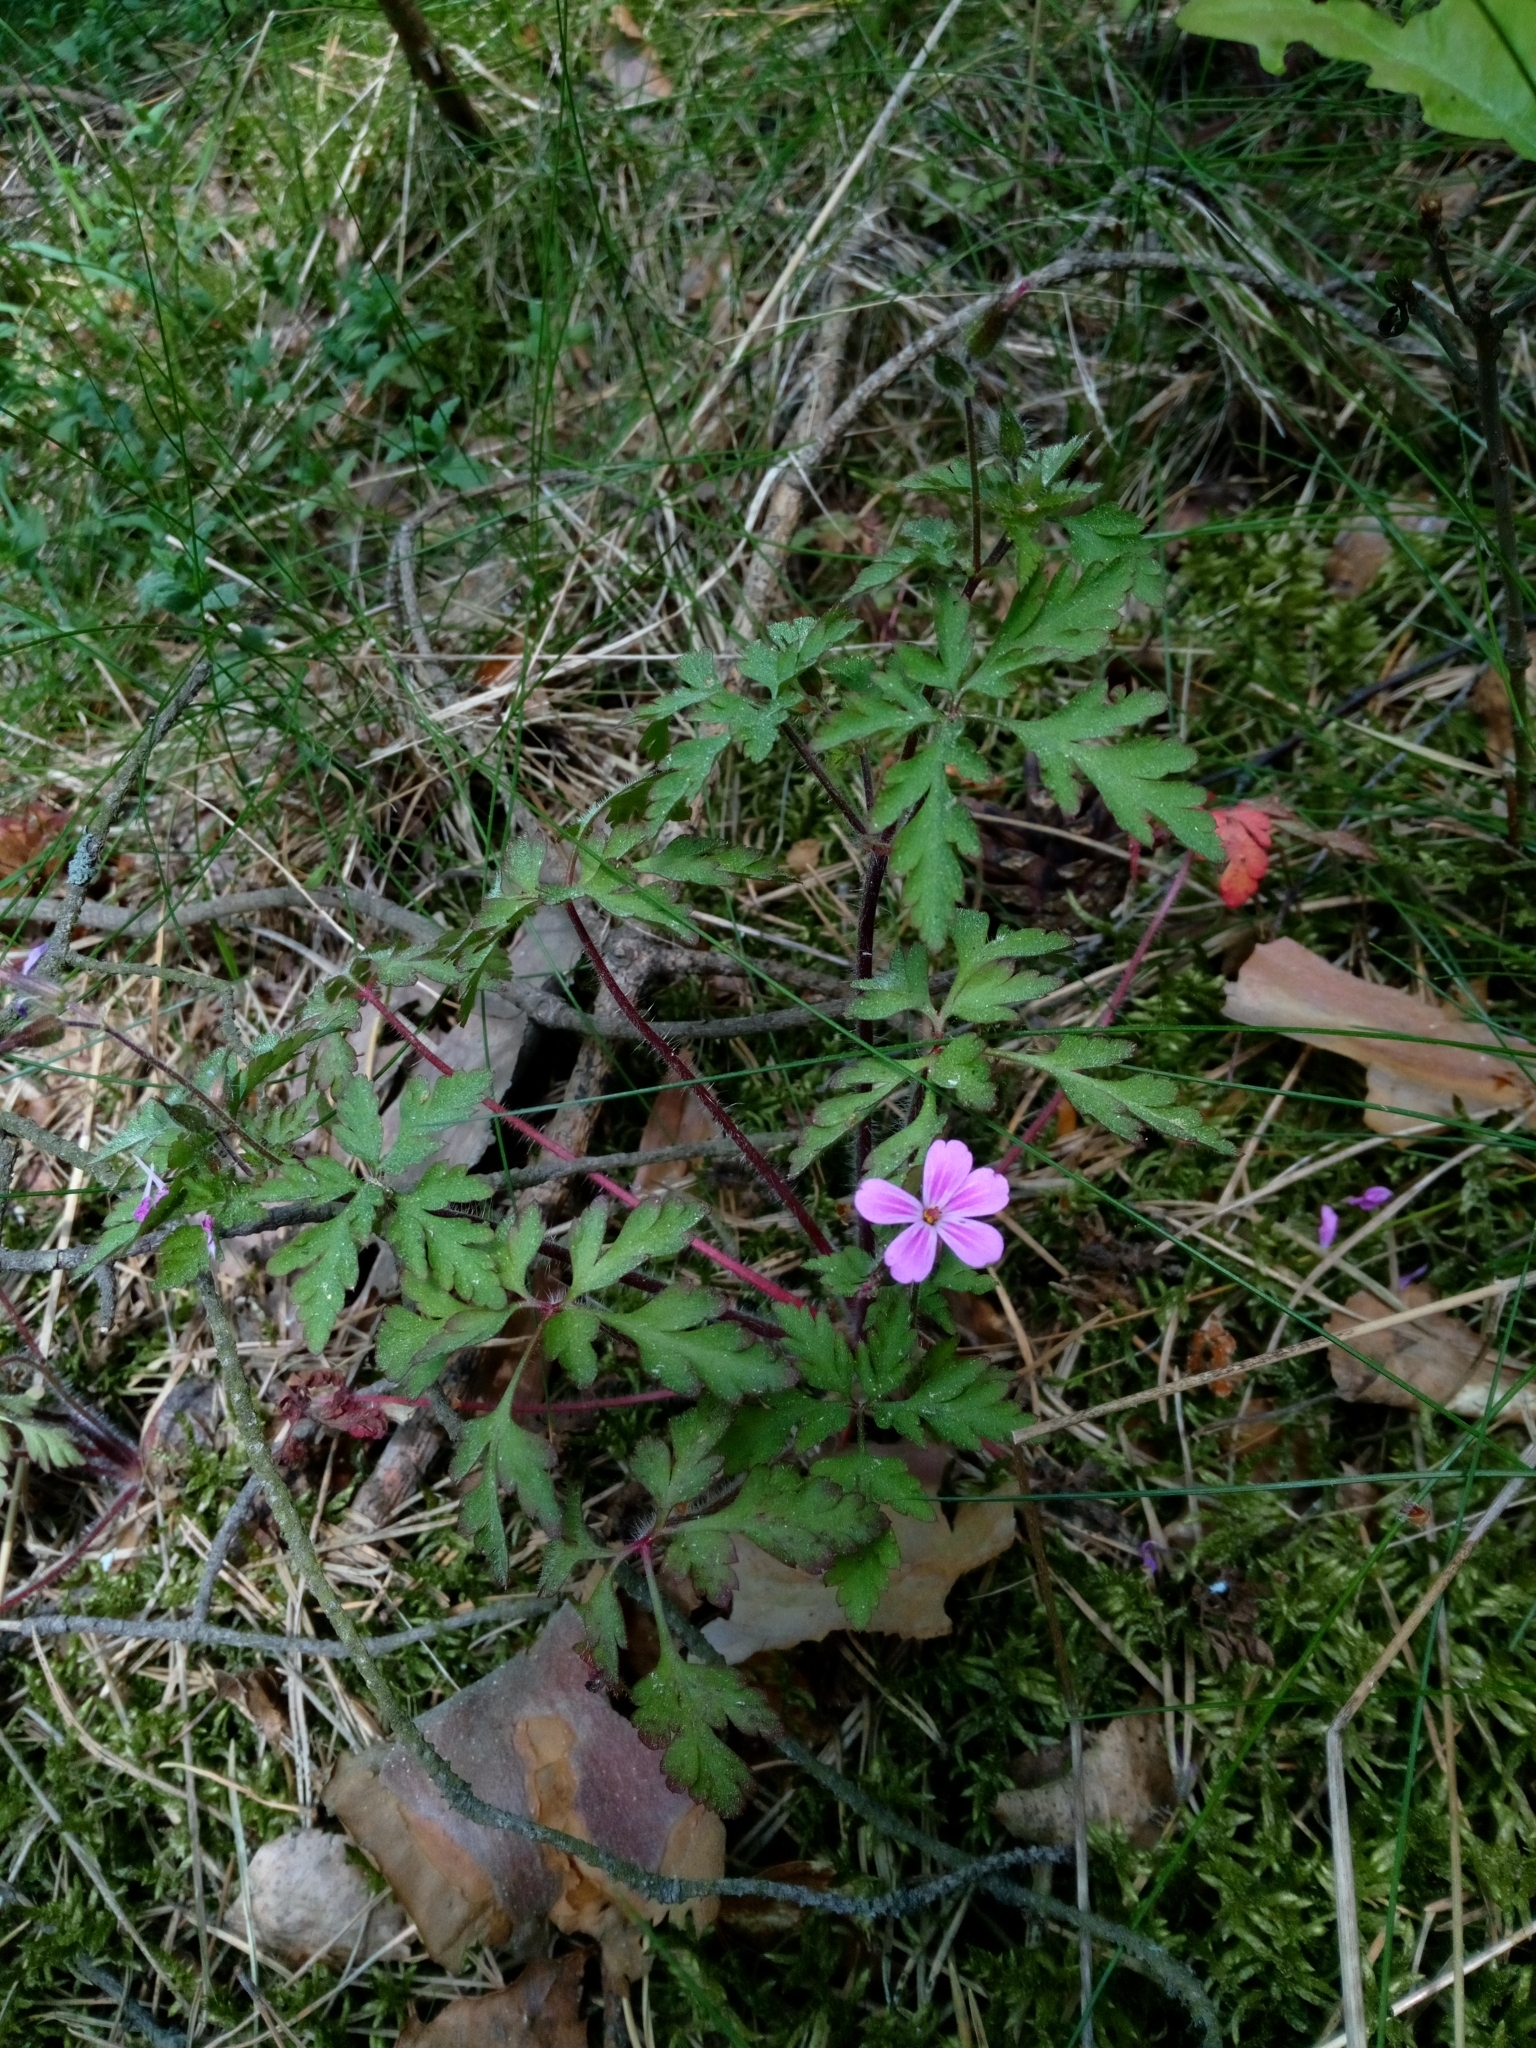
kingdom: Plantae
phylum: Tracheophyta
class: Magnoliopsida
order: Geraniales
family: Geraniaceae
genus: Geranium
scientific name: Geranium robertianum
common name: Herb-robert
